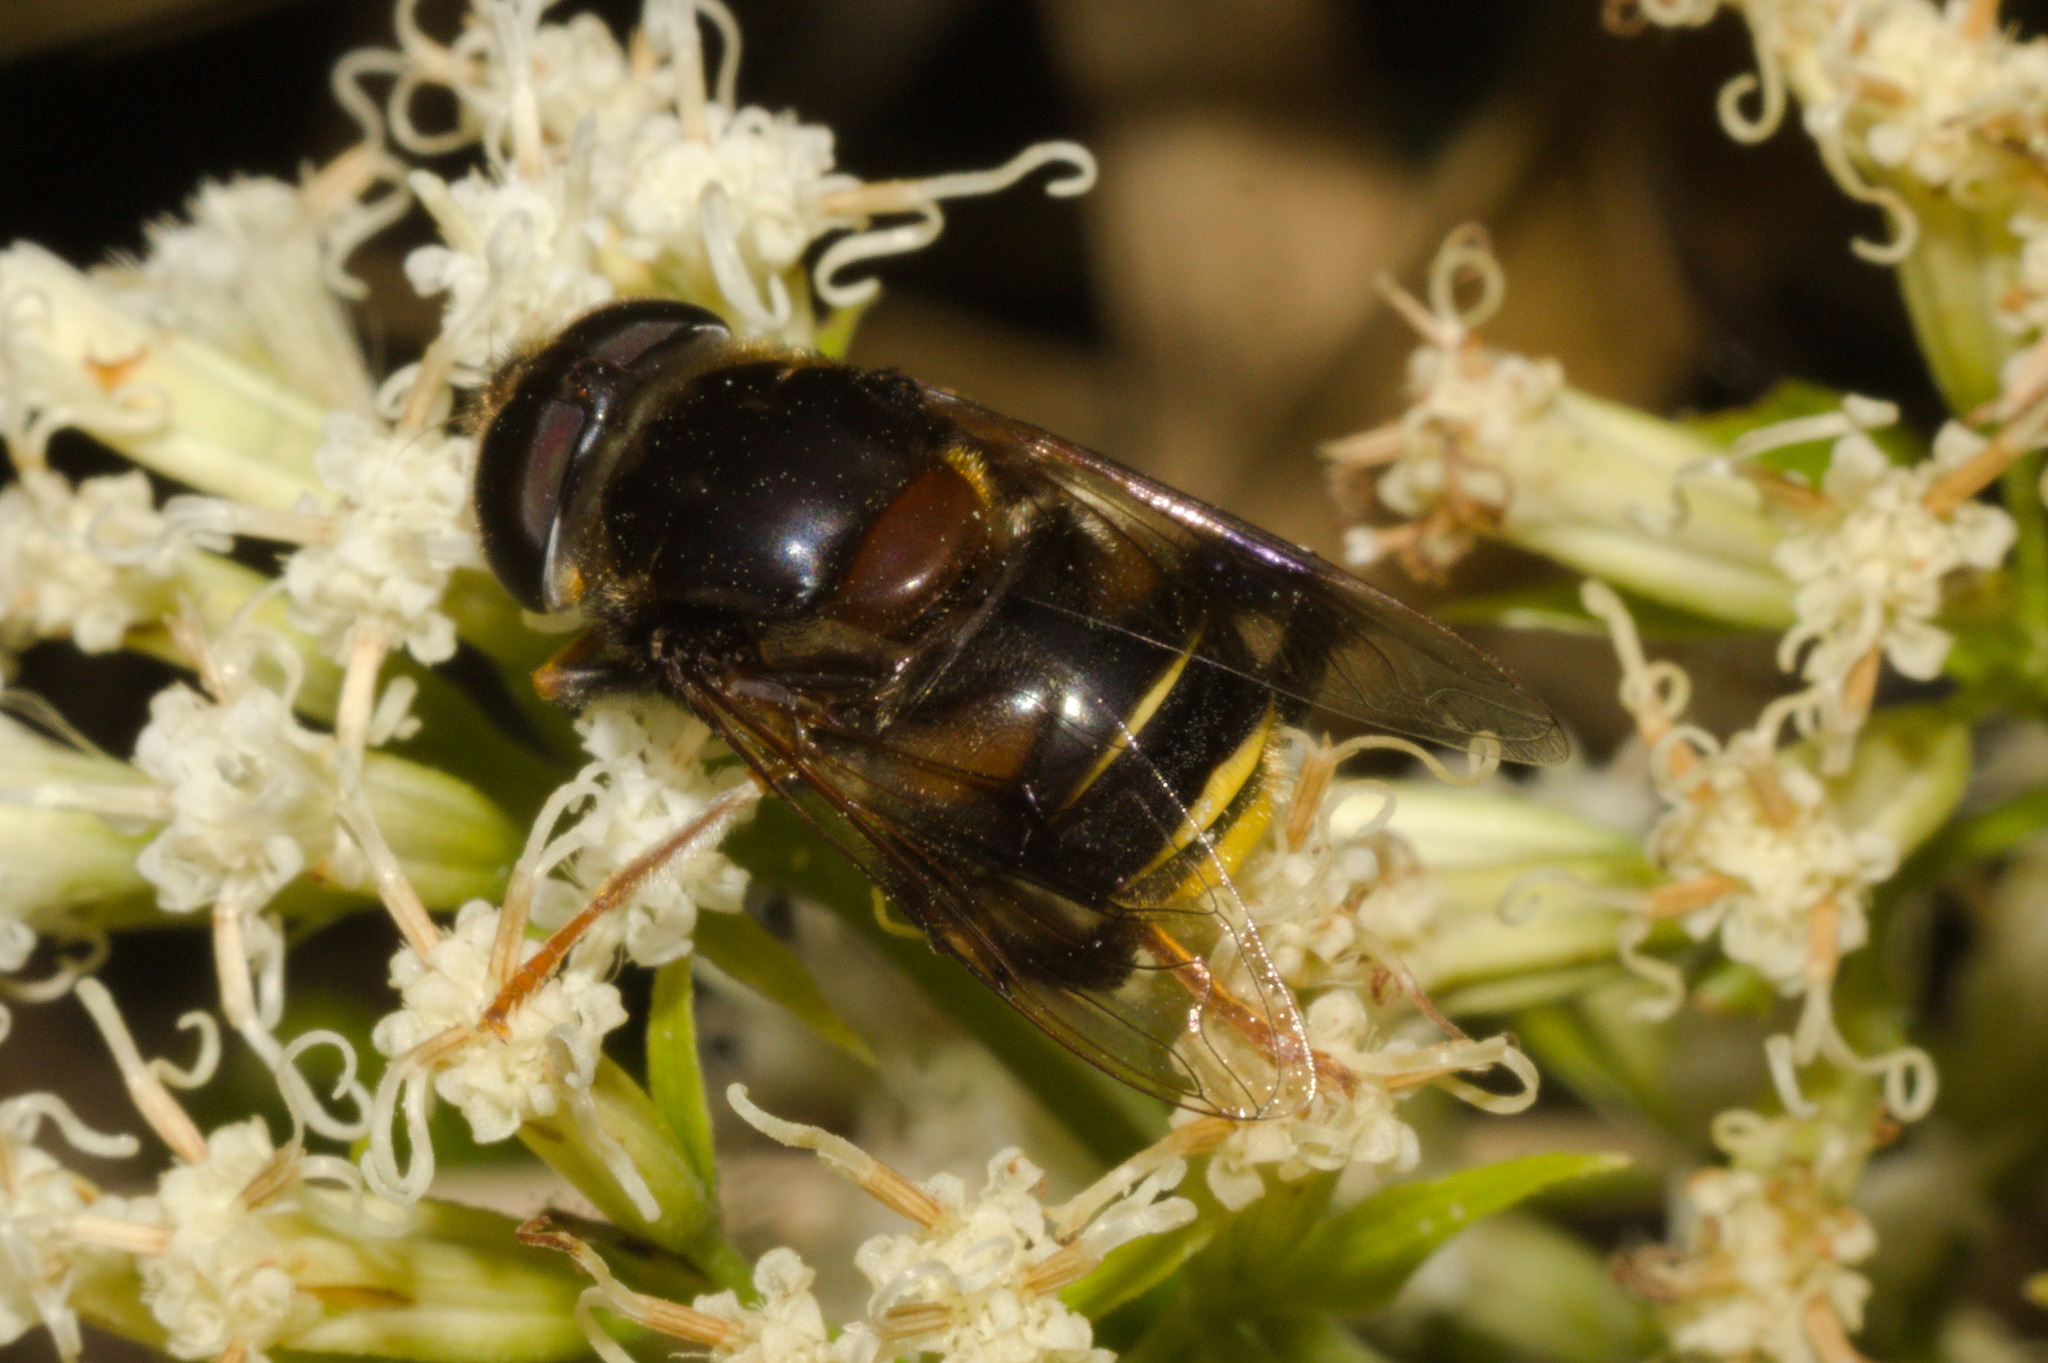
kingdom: Animalia
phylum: Arthropoda
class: Insecta
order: Diptera
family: Syrphidae
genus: Palpada
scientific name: Palpada pygolampa
